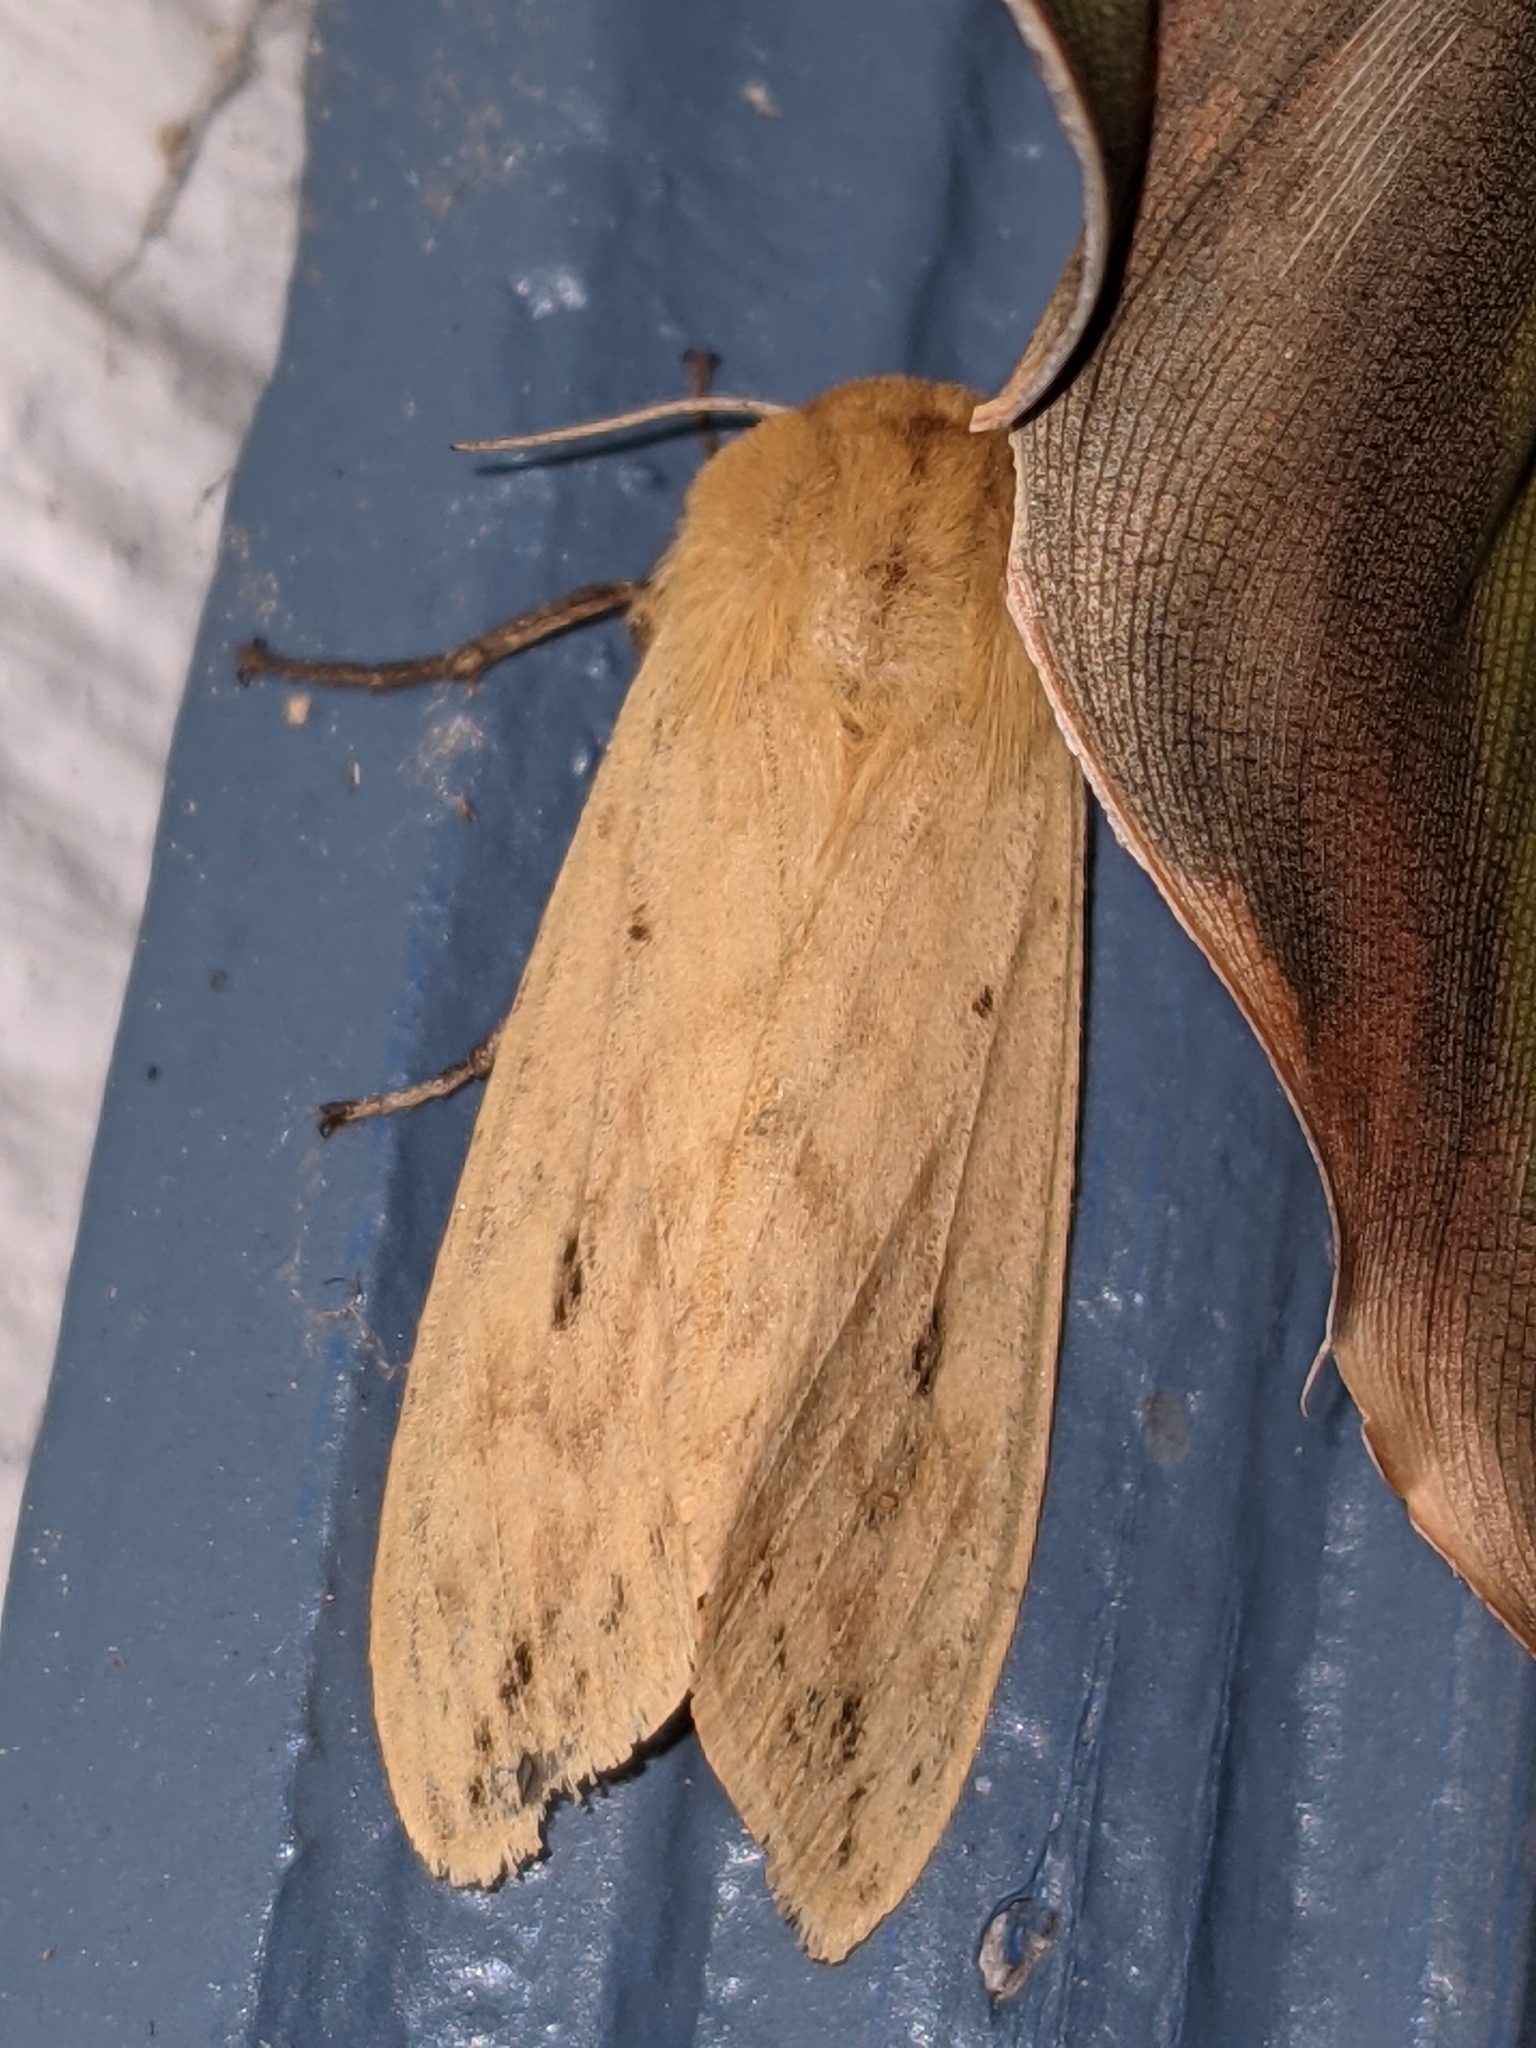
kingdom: Animalia
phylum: Arthropoda
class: Insecta
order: Lepidoptera
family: Erebidae
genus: Pyrrharctia
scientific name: Pyrrharctia isabella
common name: Isabella tiger moth
